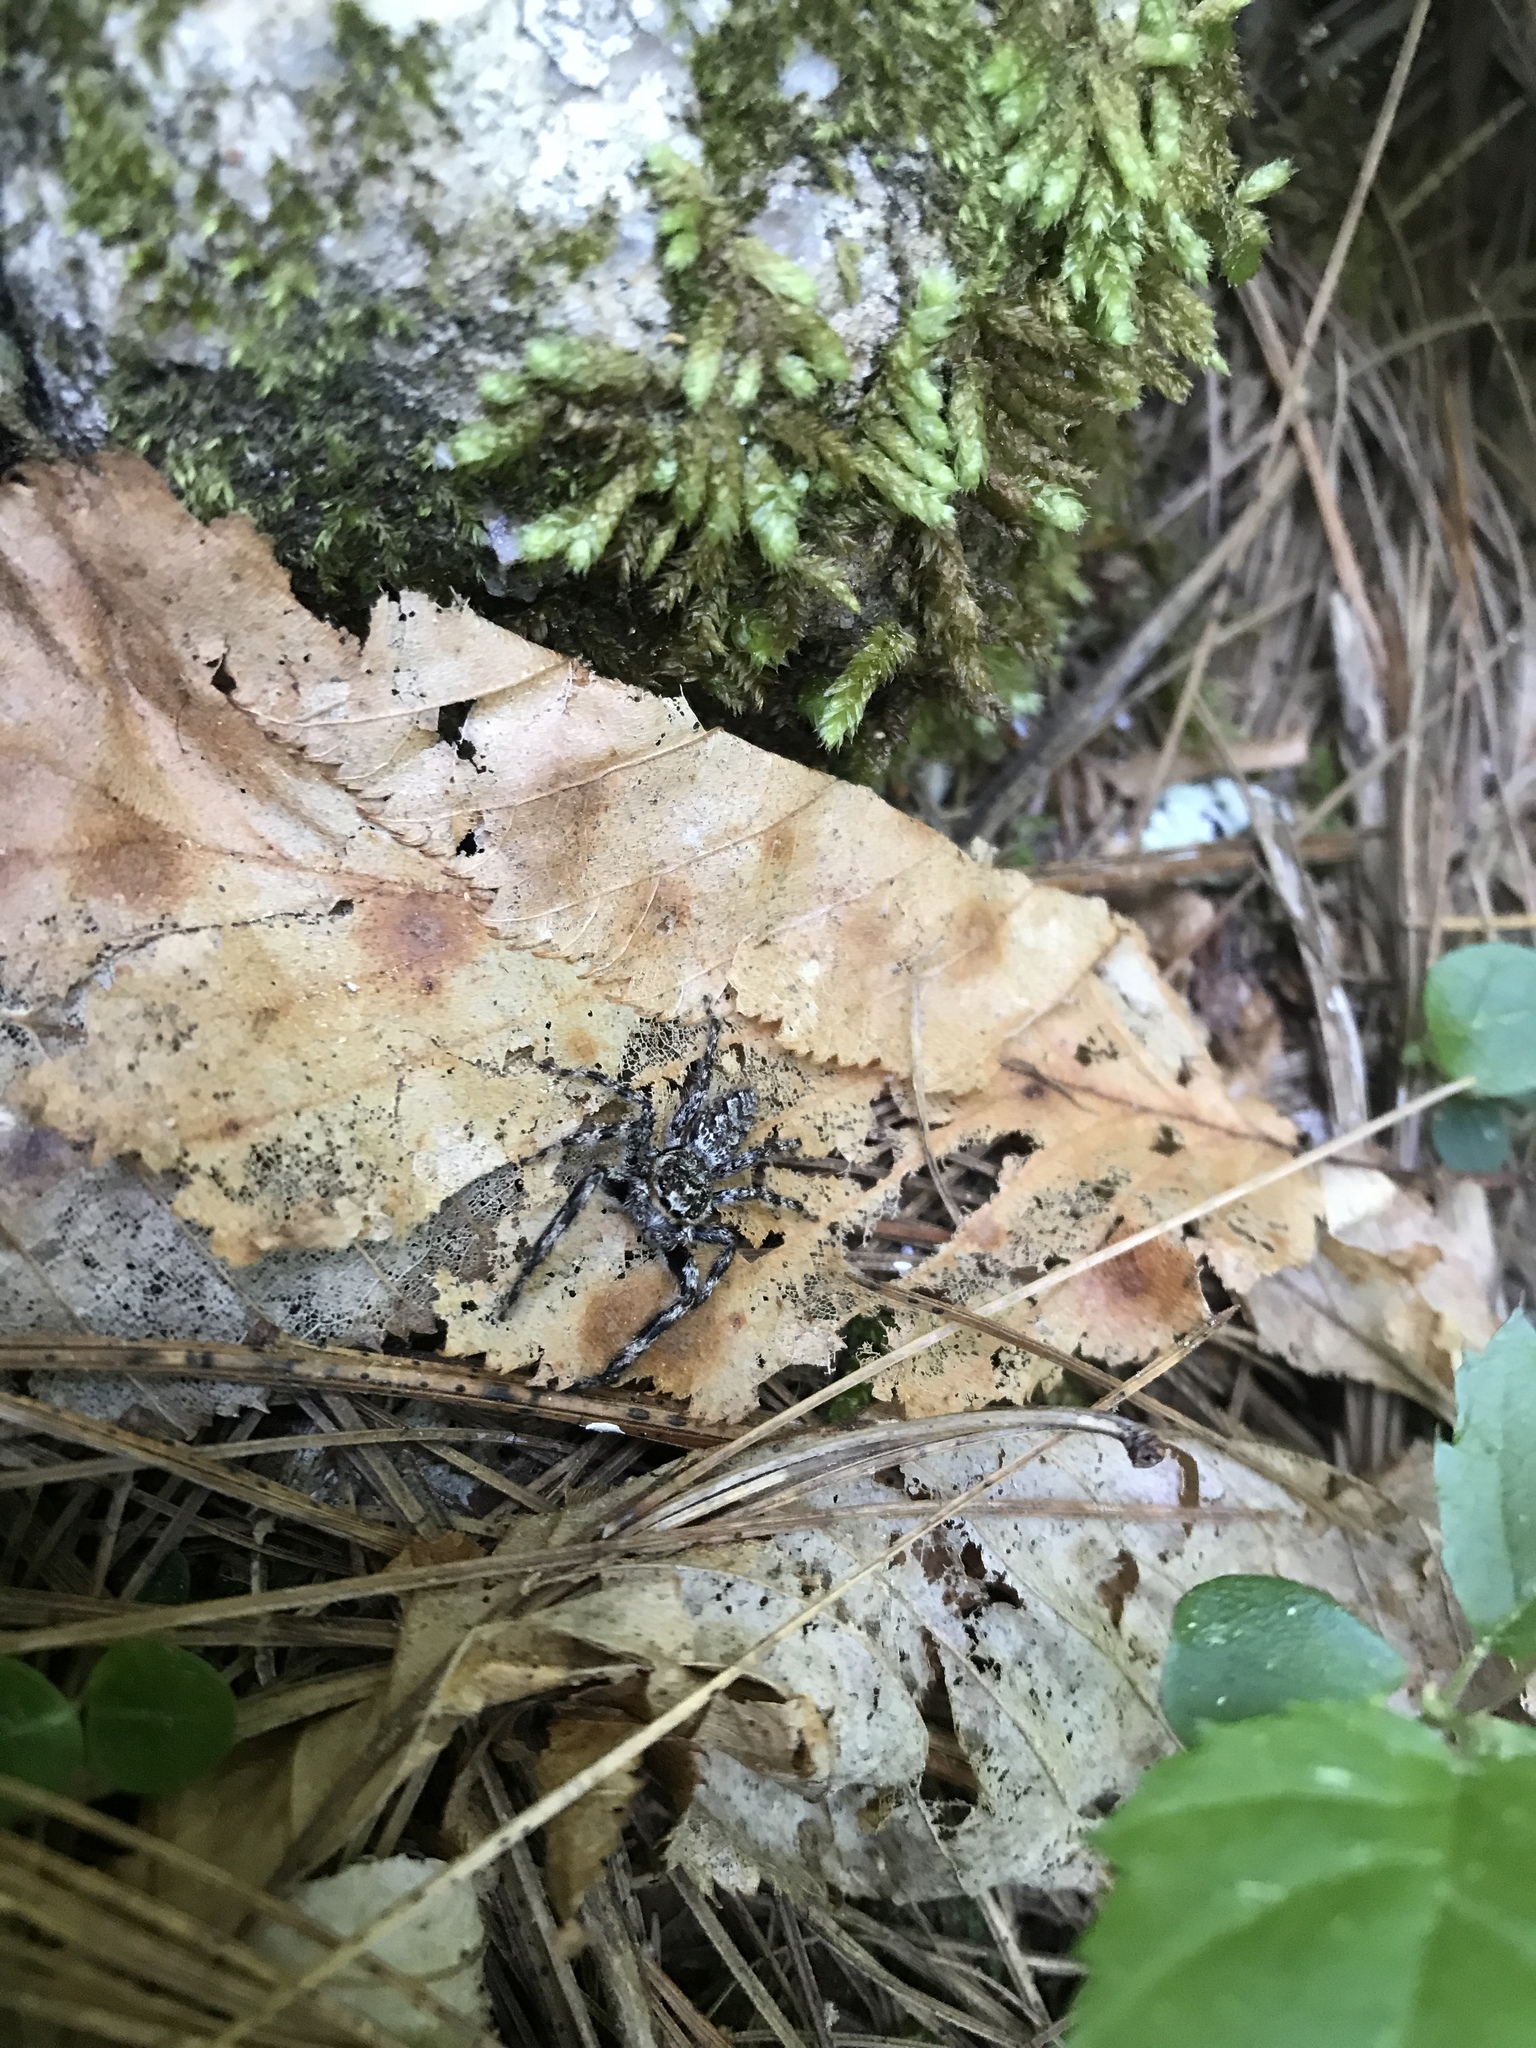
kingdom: Animalia
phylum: Arthropoda
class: Arachnida
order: Araneae
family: Salticidae
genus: Platycryptus
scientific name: Platycryptus undatus
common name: Tan jumping spider
